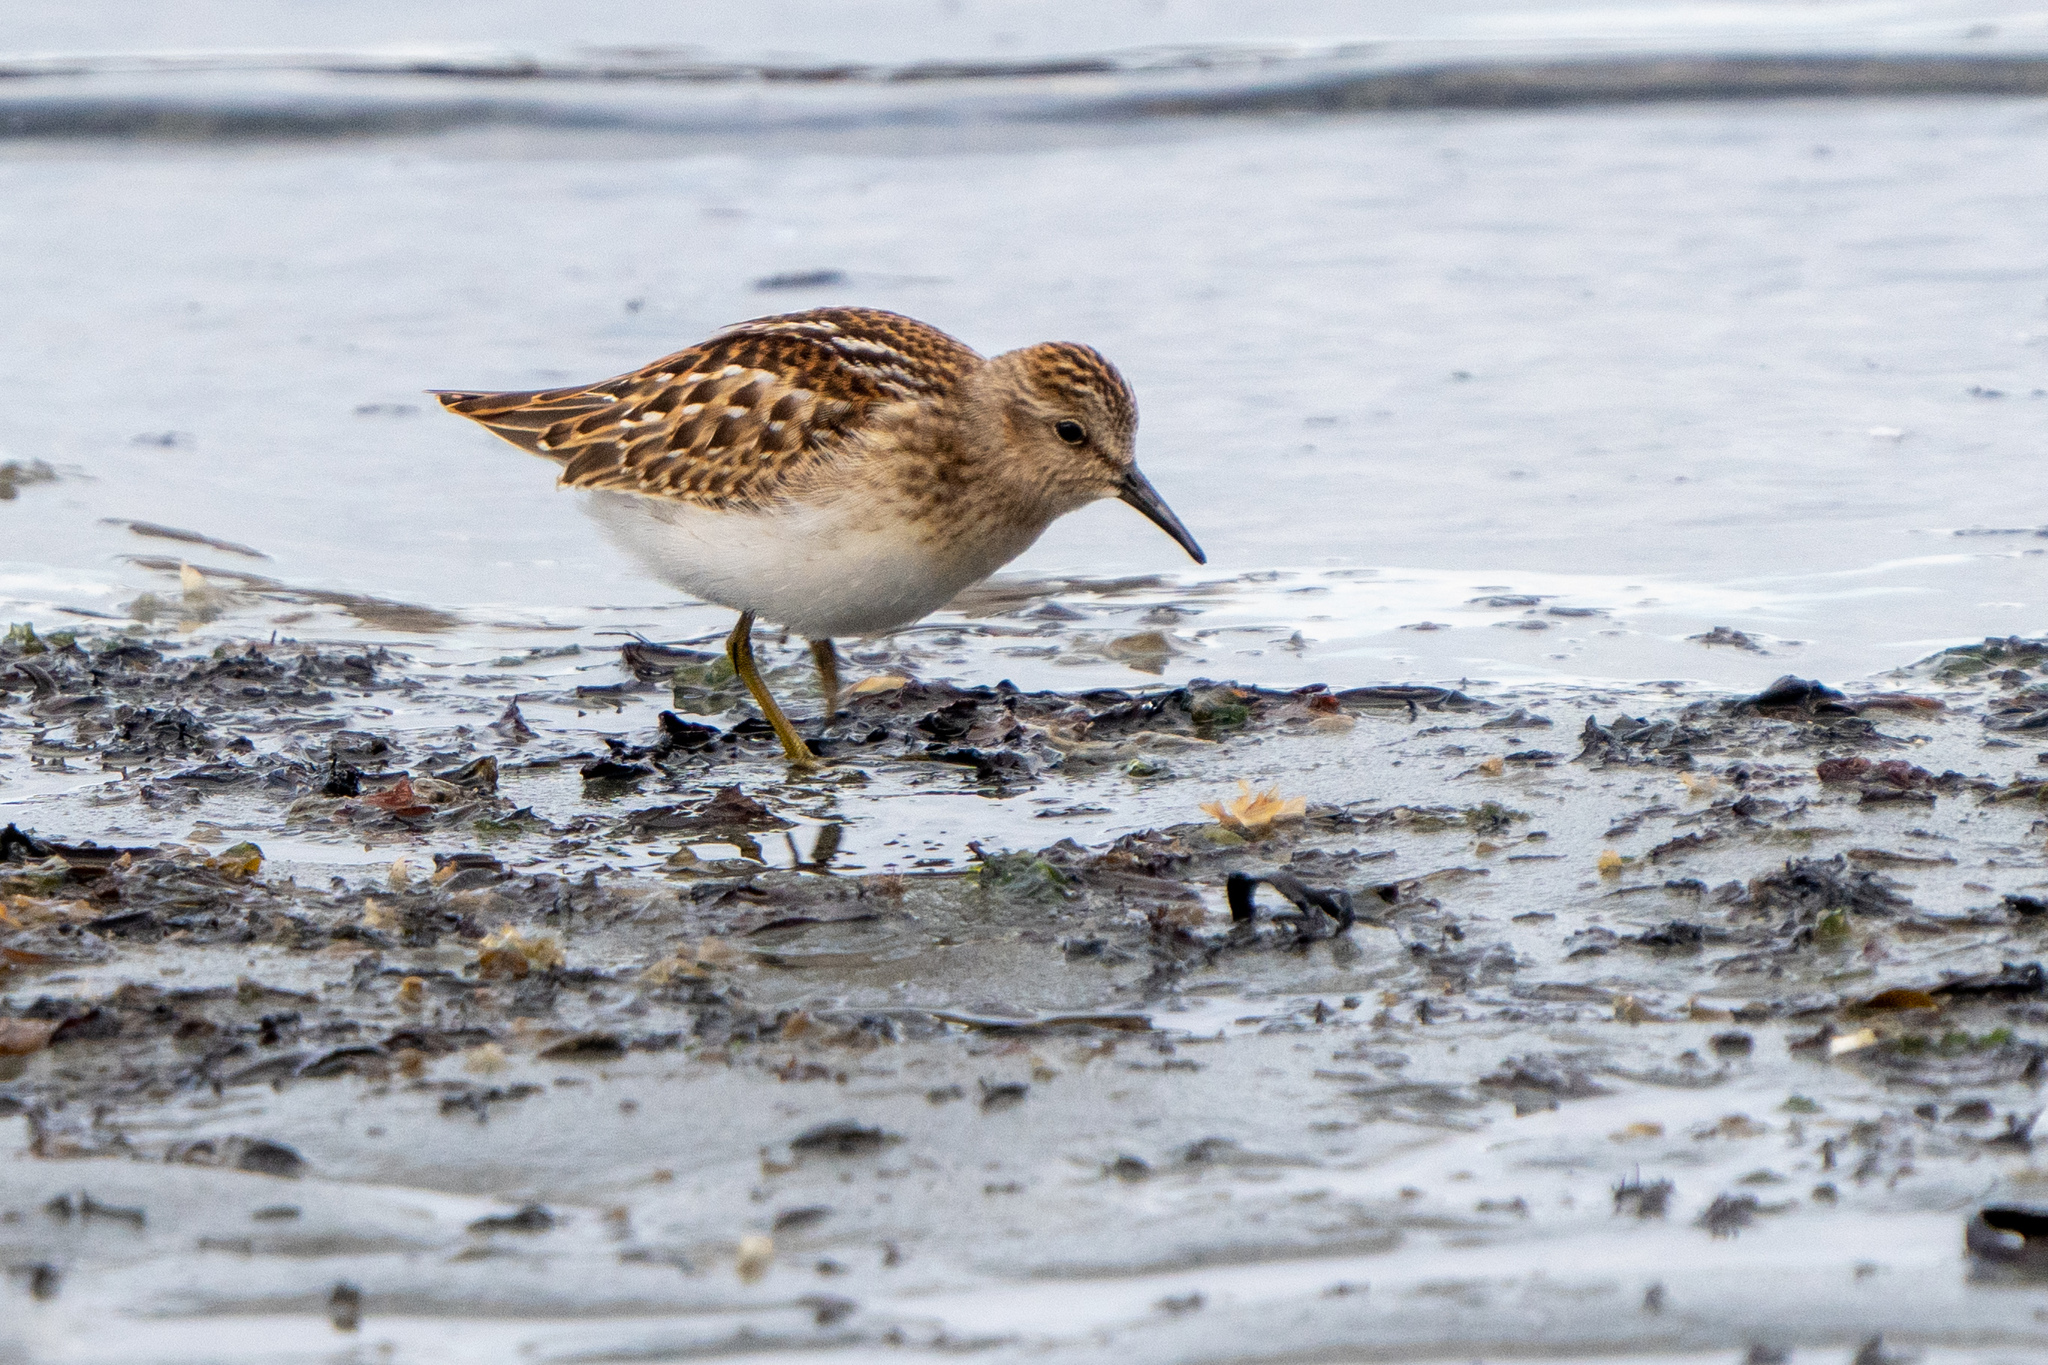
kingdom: Animalia
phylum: Chordata
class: Aves
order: Charadriiformes
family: Scolopacidae
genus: Calidris
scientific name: Calidris minutilla
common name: Least sandpiper
